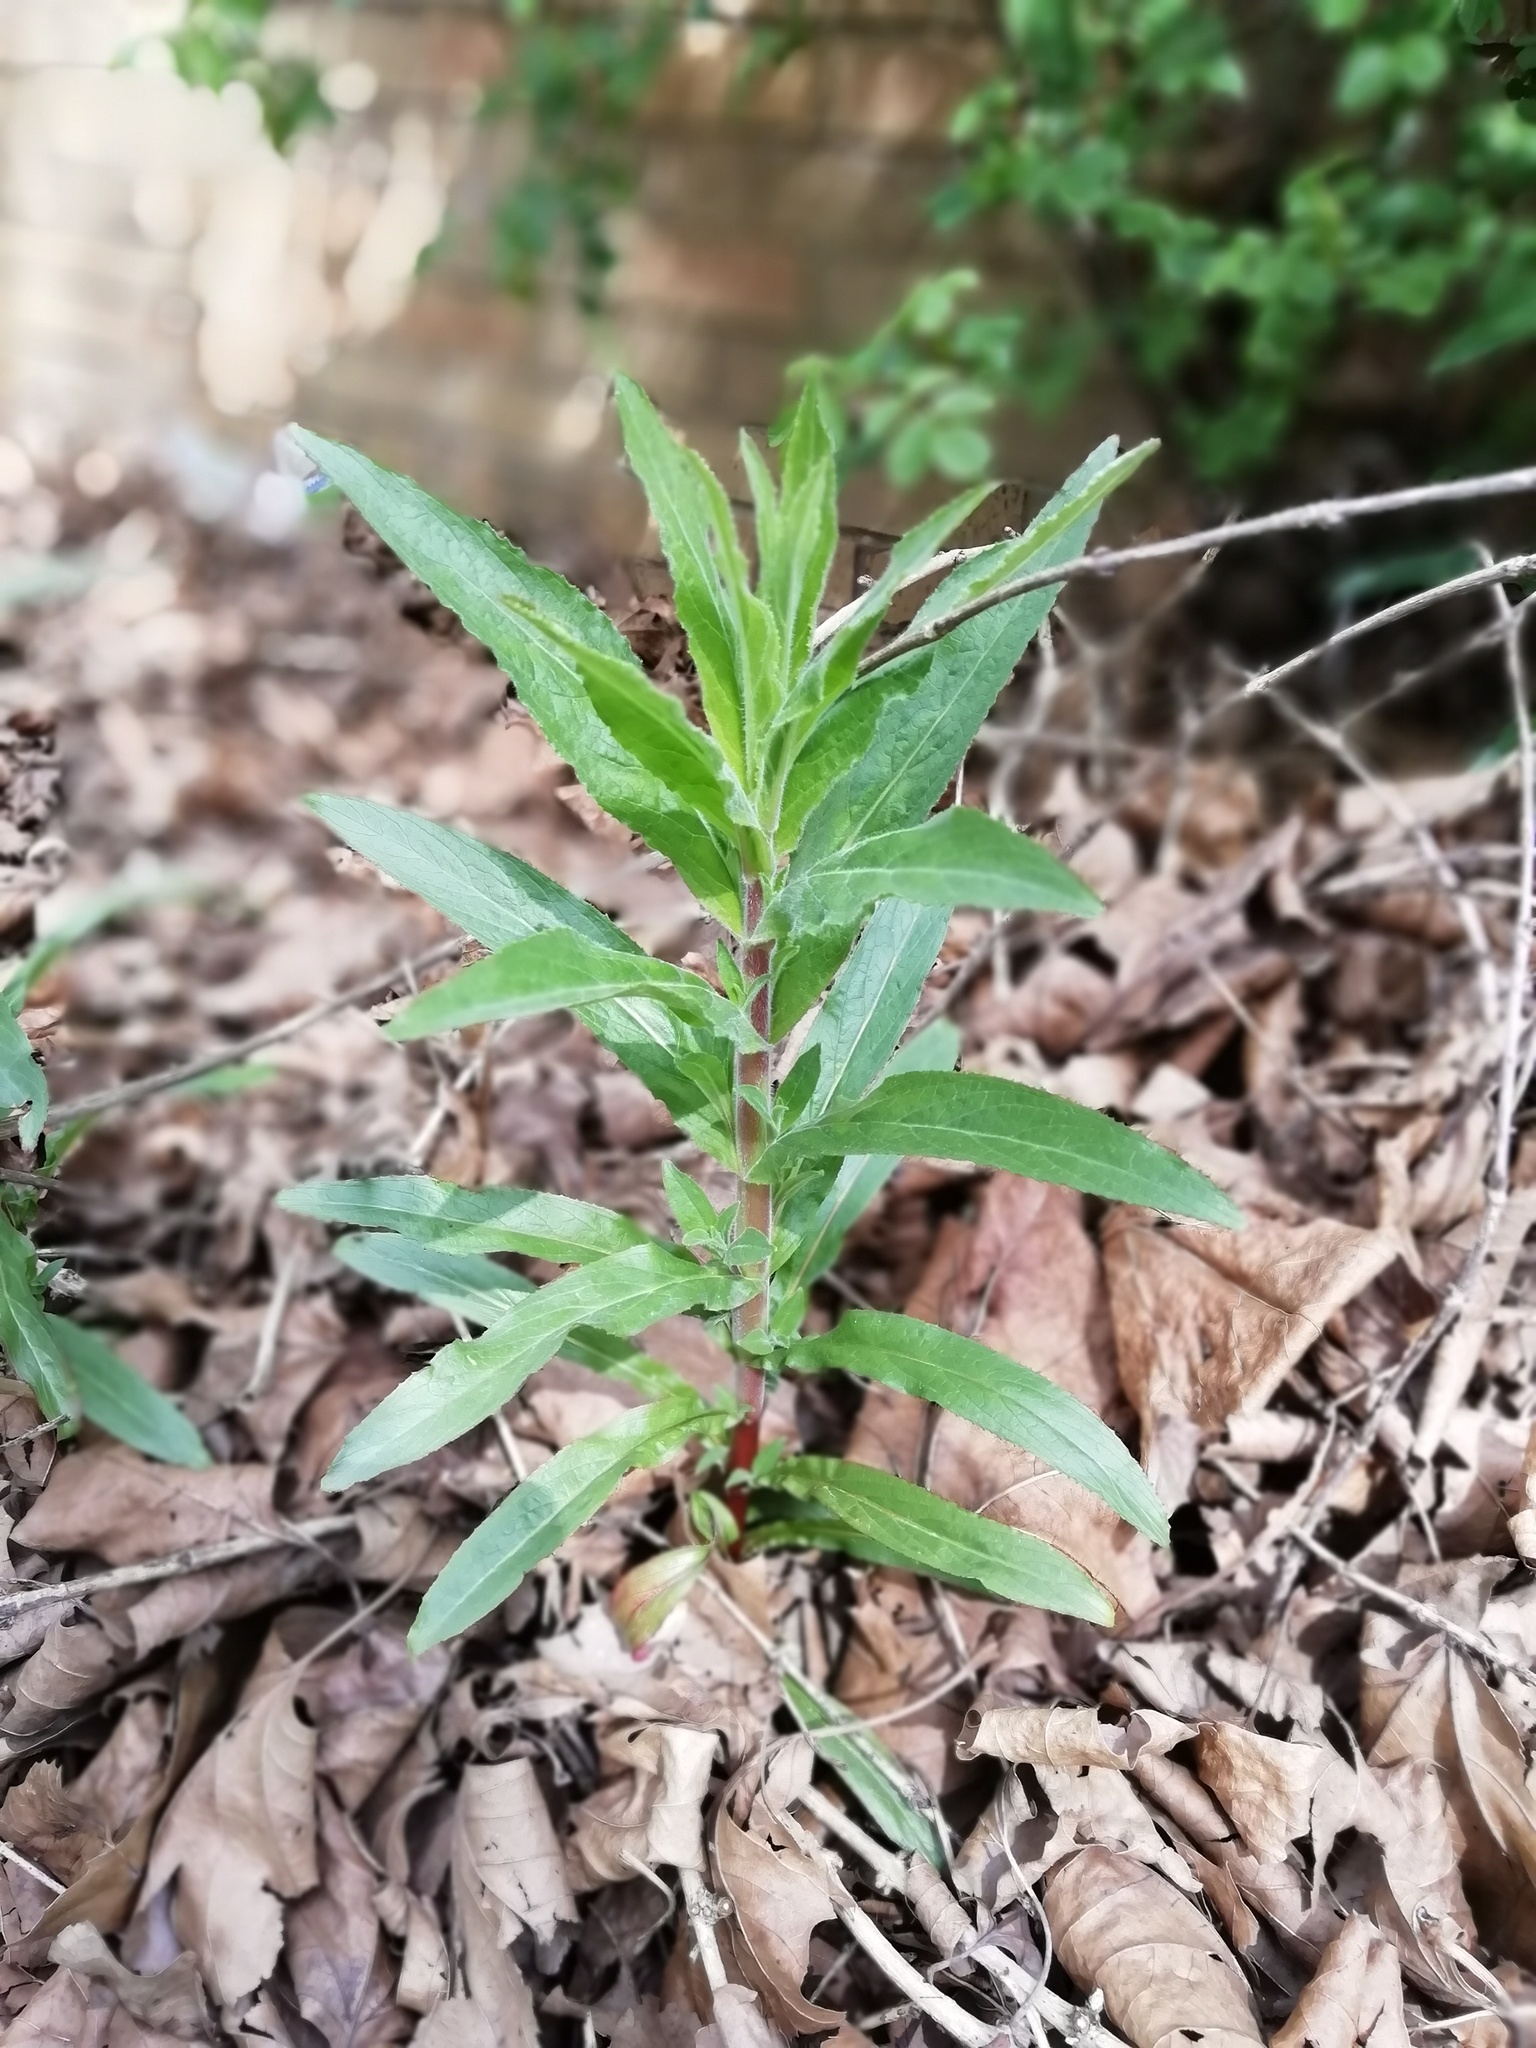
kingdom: Plantae
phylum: Tracheophyta
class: Magnoliopsida
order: Myrtales
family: Onagraceae
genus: Epilobium
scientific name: Epilobium hirsutum
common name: Great willowherb
